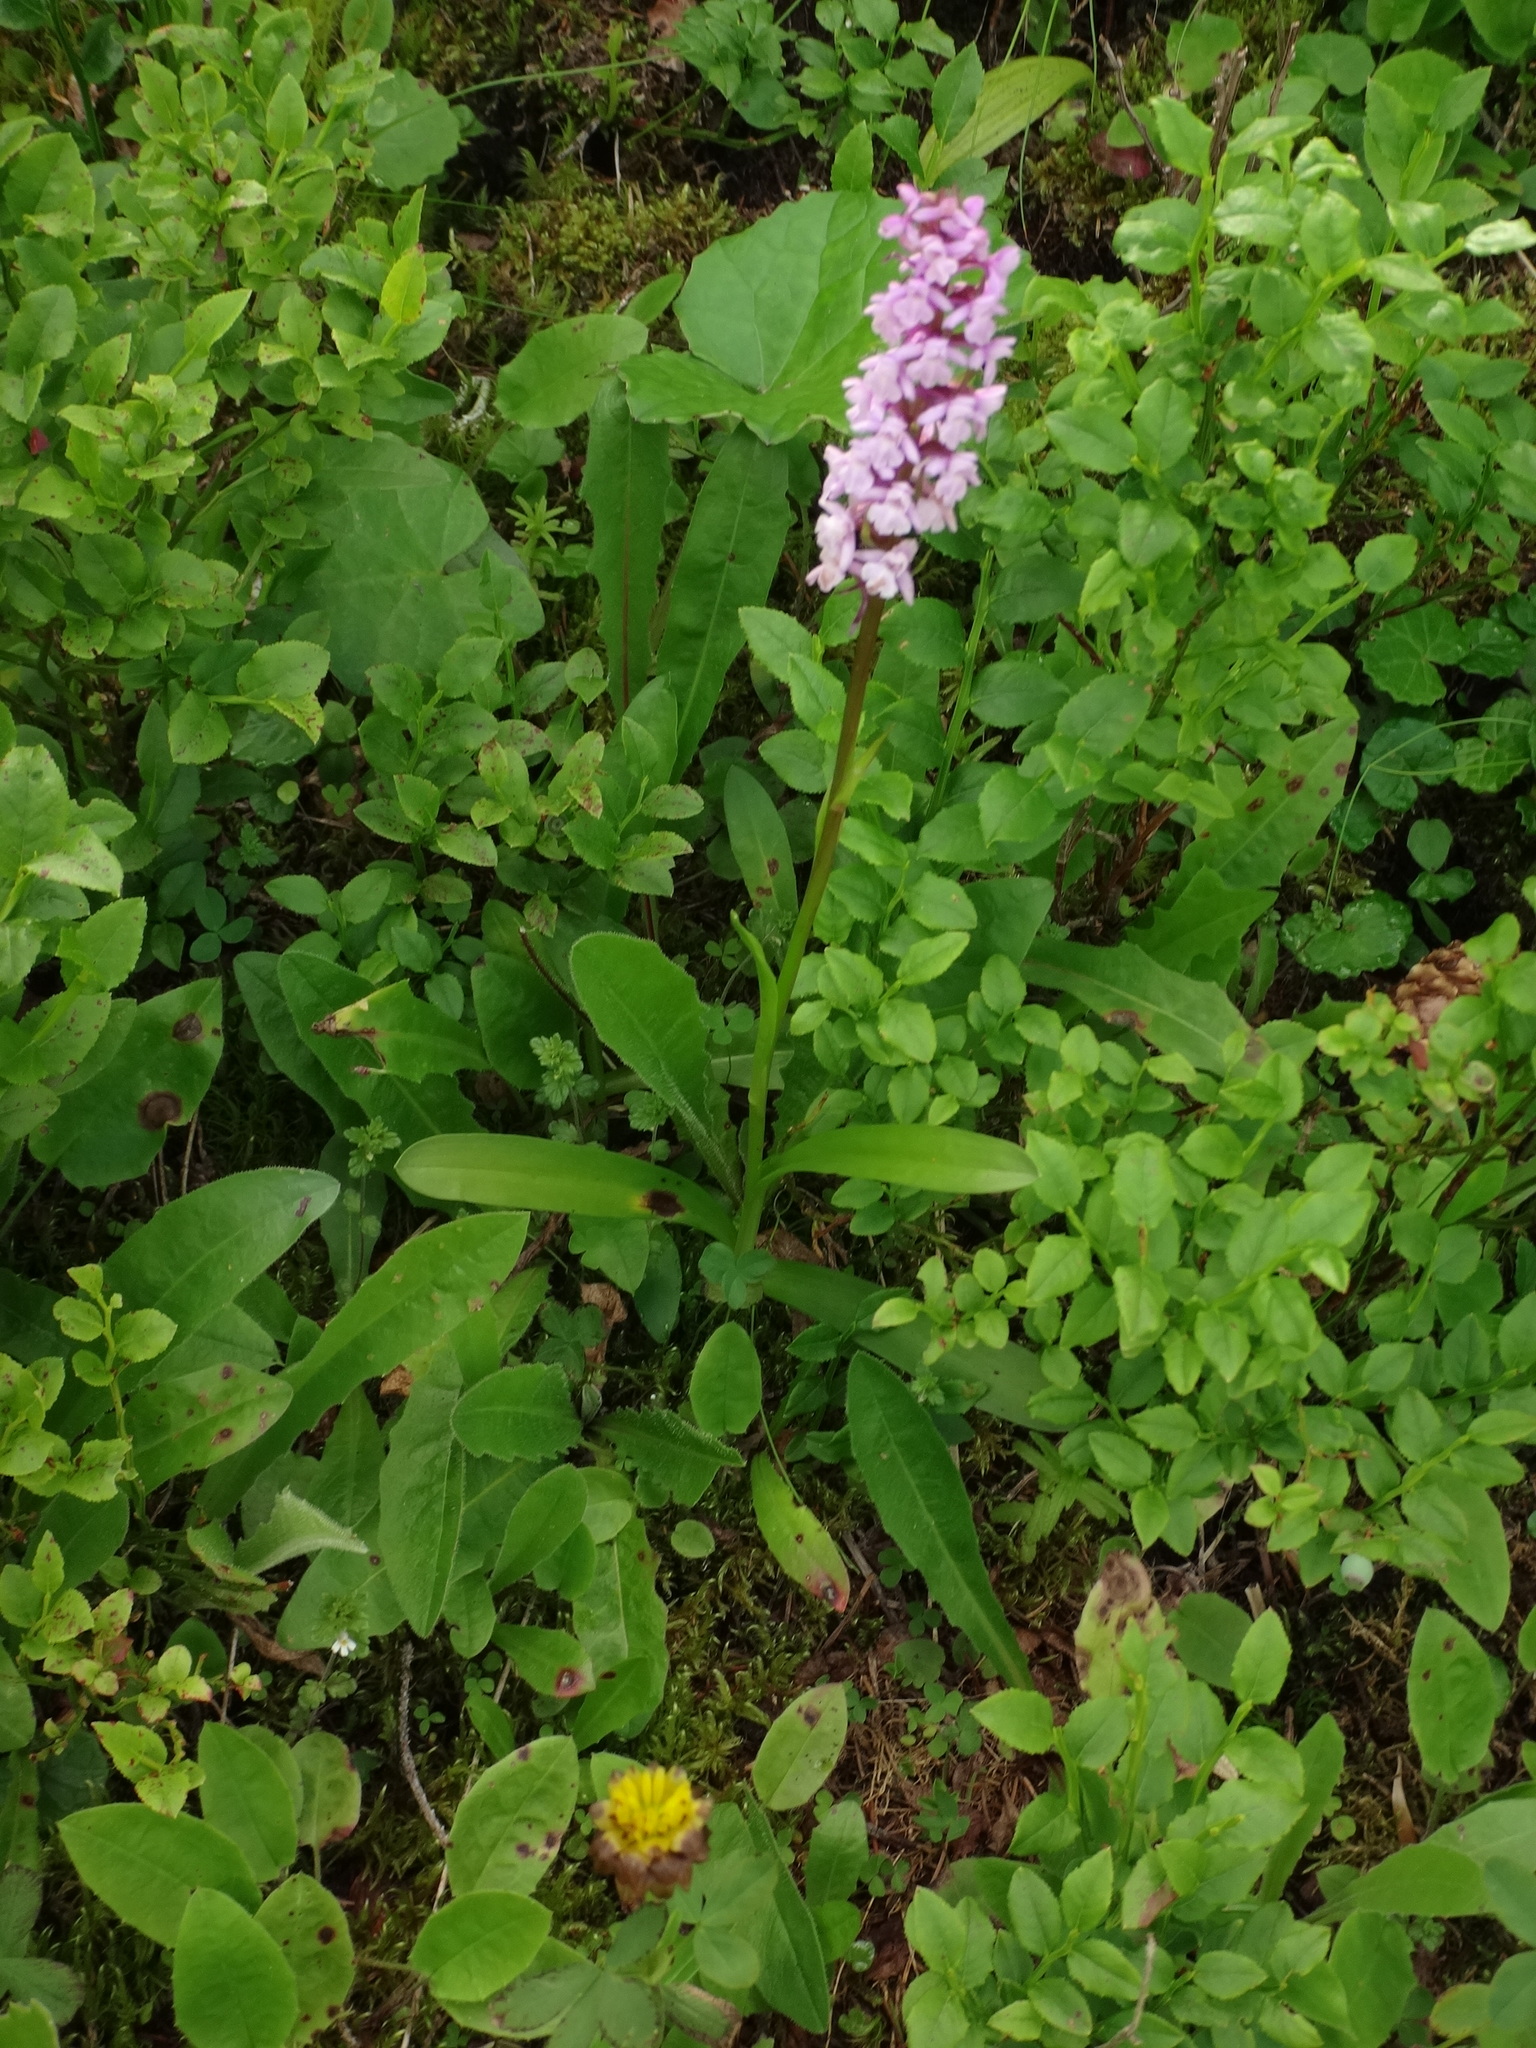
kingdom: Plantae
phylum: Tracheophyta
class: Liliopsida
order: Asparagales
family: Orchidaceae
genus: Gymnadenia
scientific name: Gymnadenia conopsea
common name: Fragrant orchid
